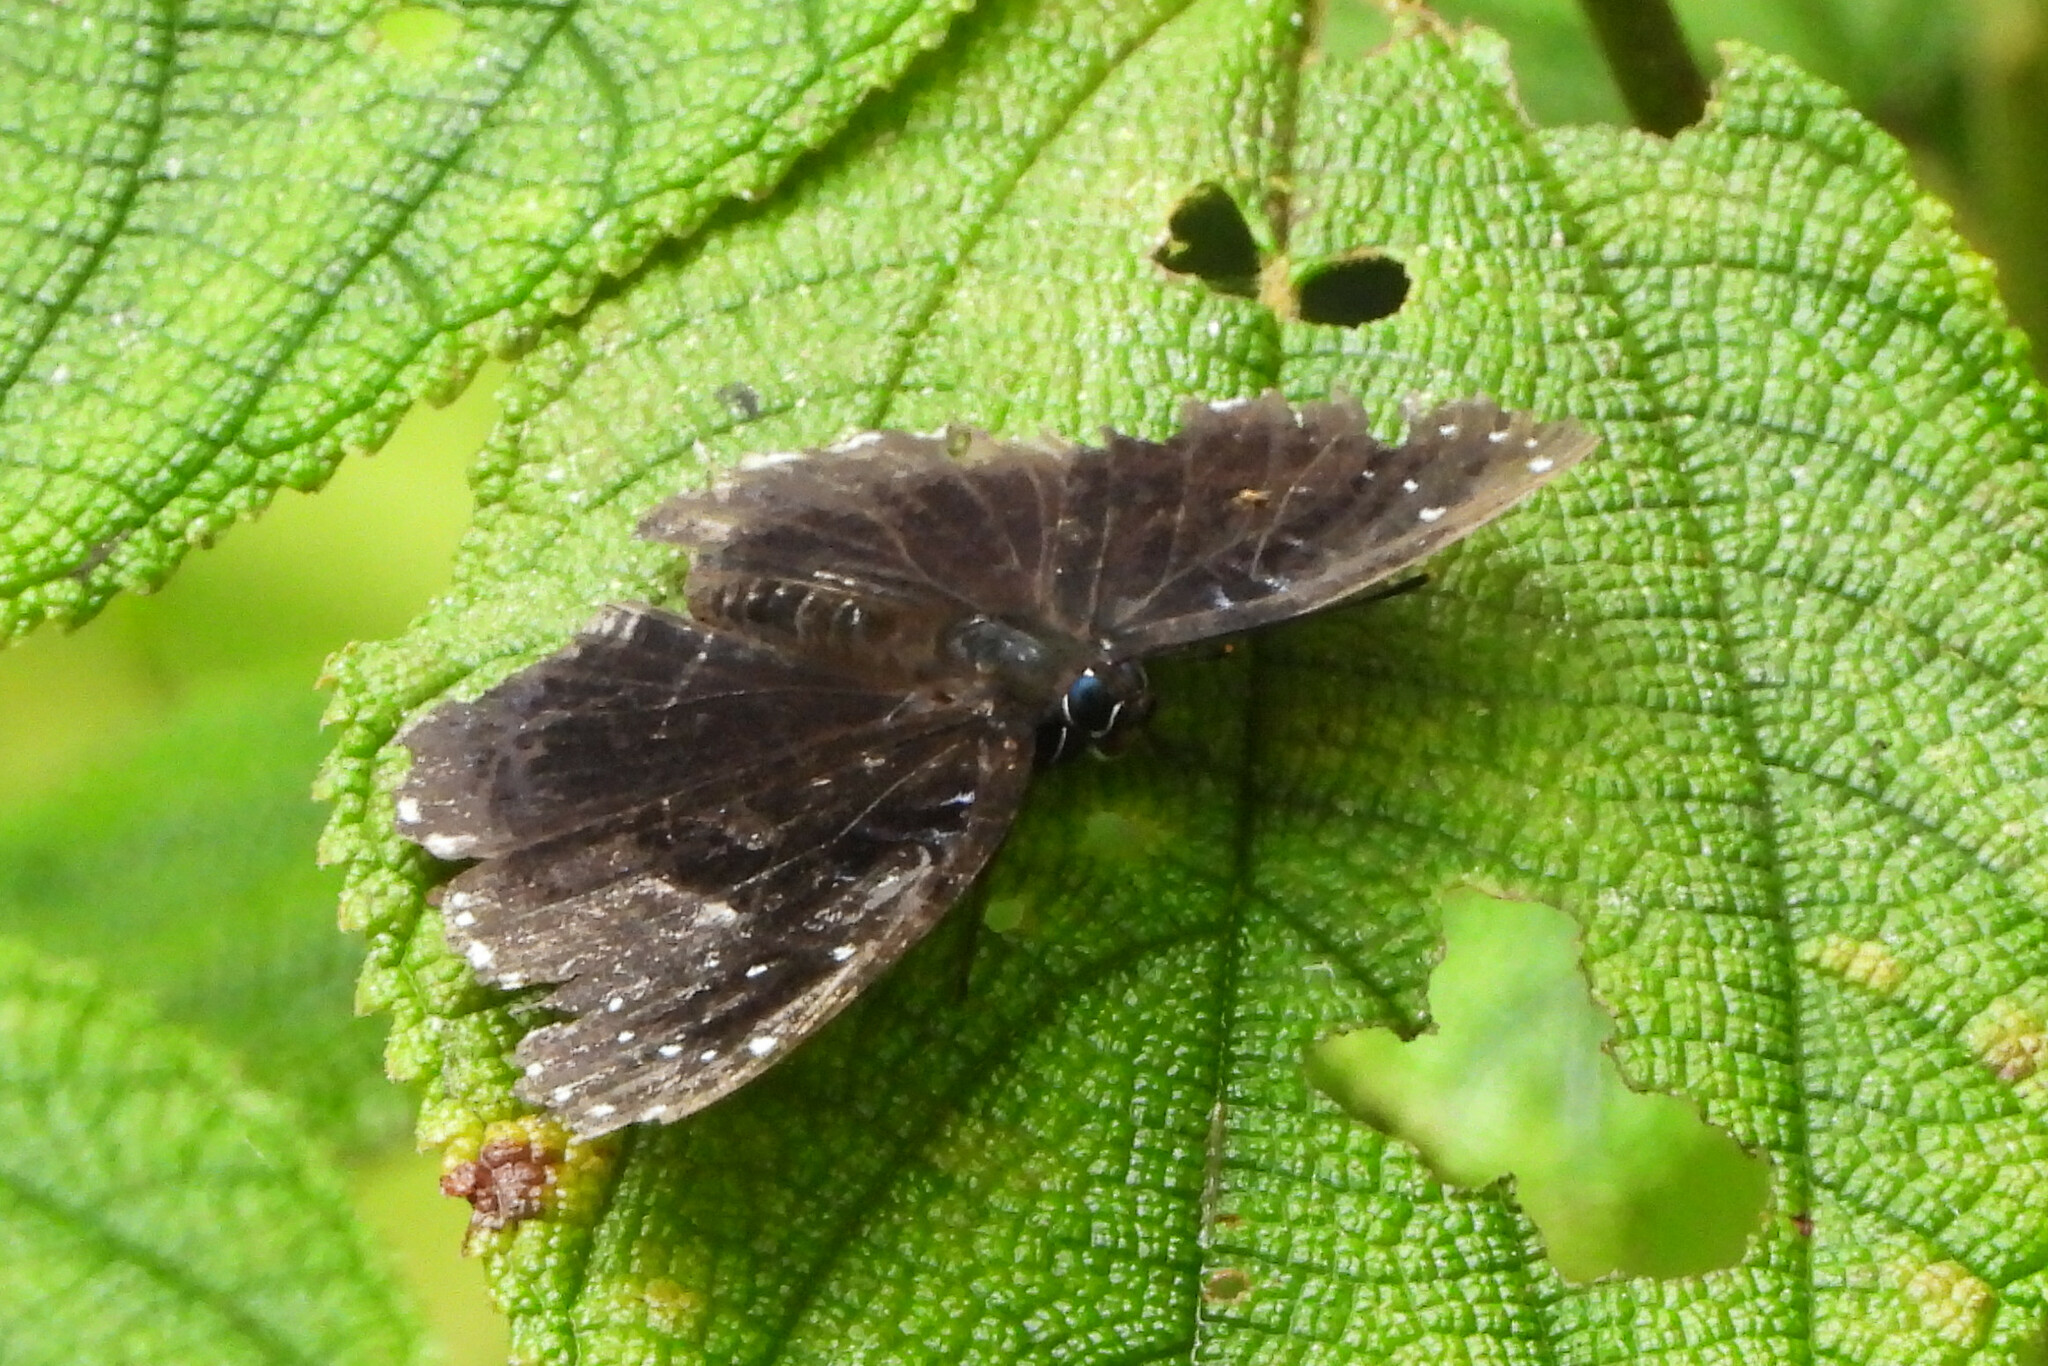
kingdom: Animalia
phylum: Arthropoda
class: Insecta
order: Lepidoptera
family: Nymphalidae
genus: Stibochiona
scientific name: Stibochiona nicea
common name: Popinjay
